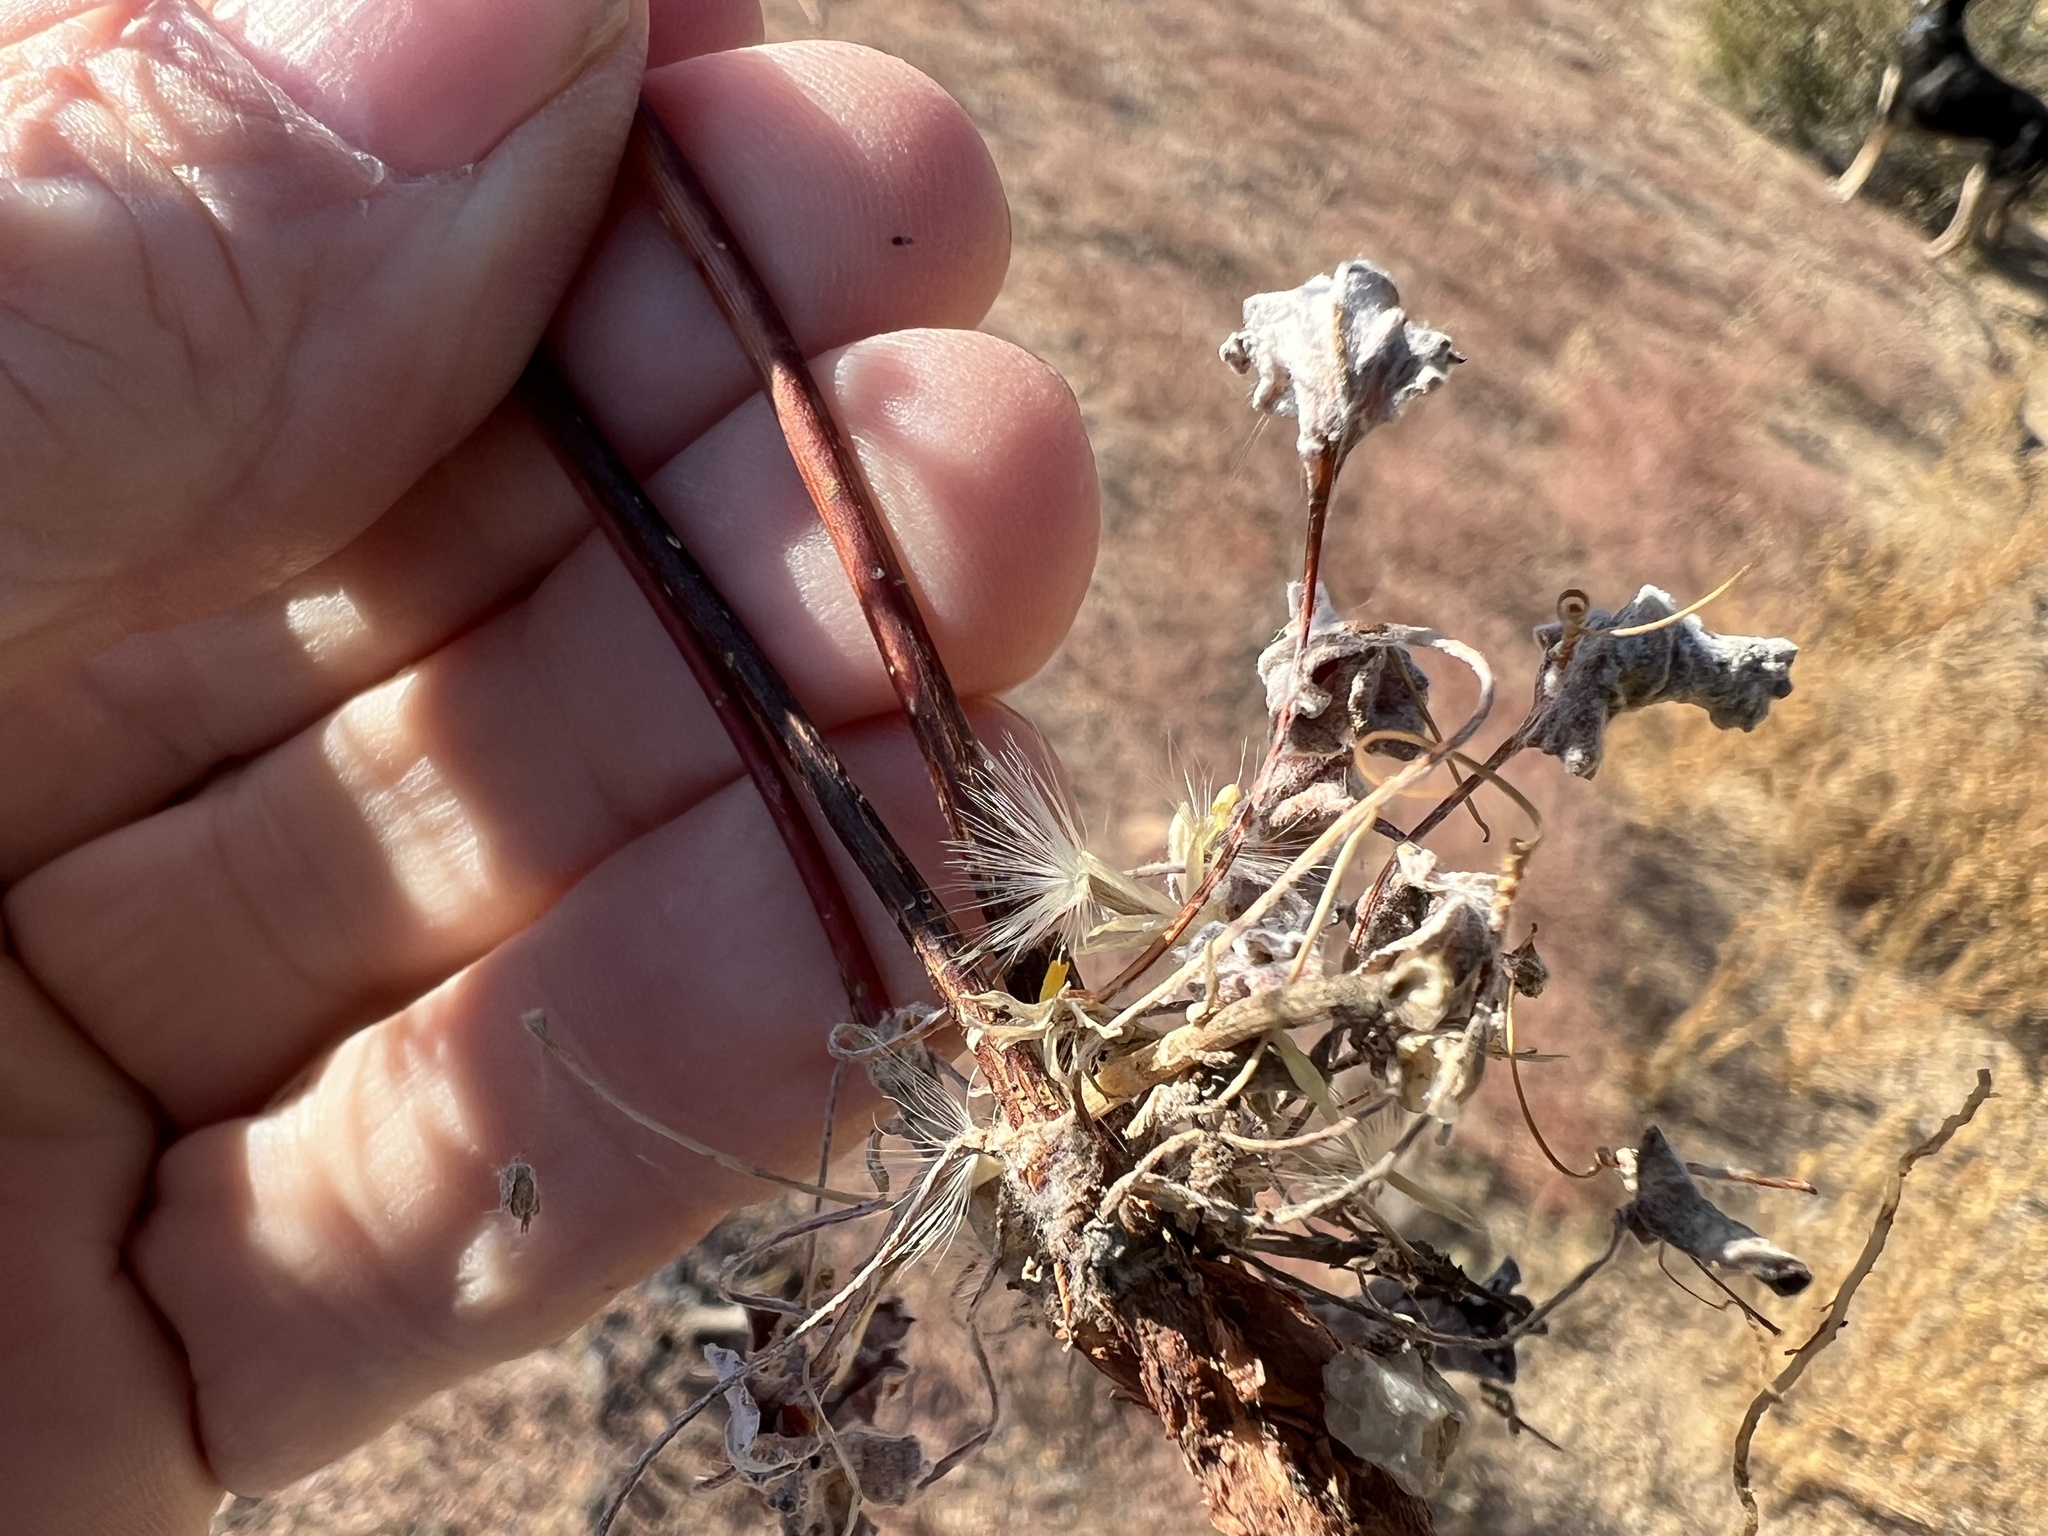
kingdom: Plantae
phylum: Tracheophyta
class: Magnoliopsida
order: Caryophyllales
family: Polygonaceae
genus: Eriogonum
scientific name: Eriogonum baileyi
